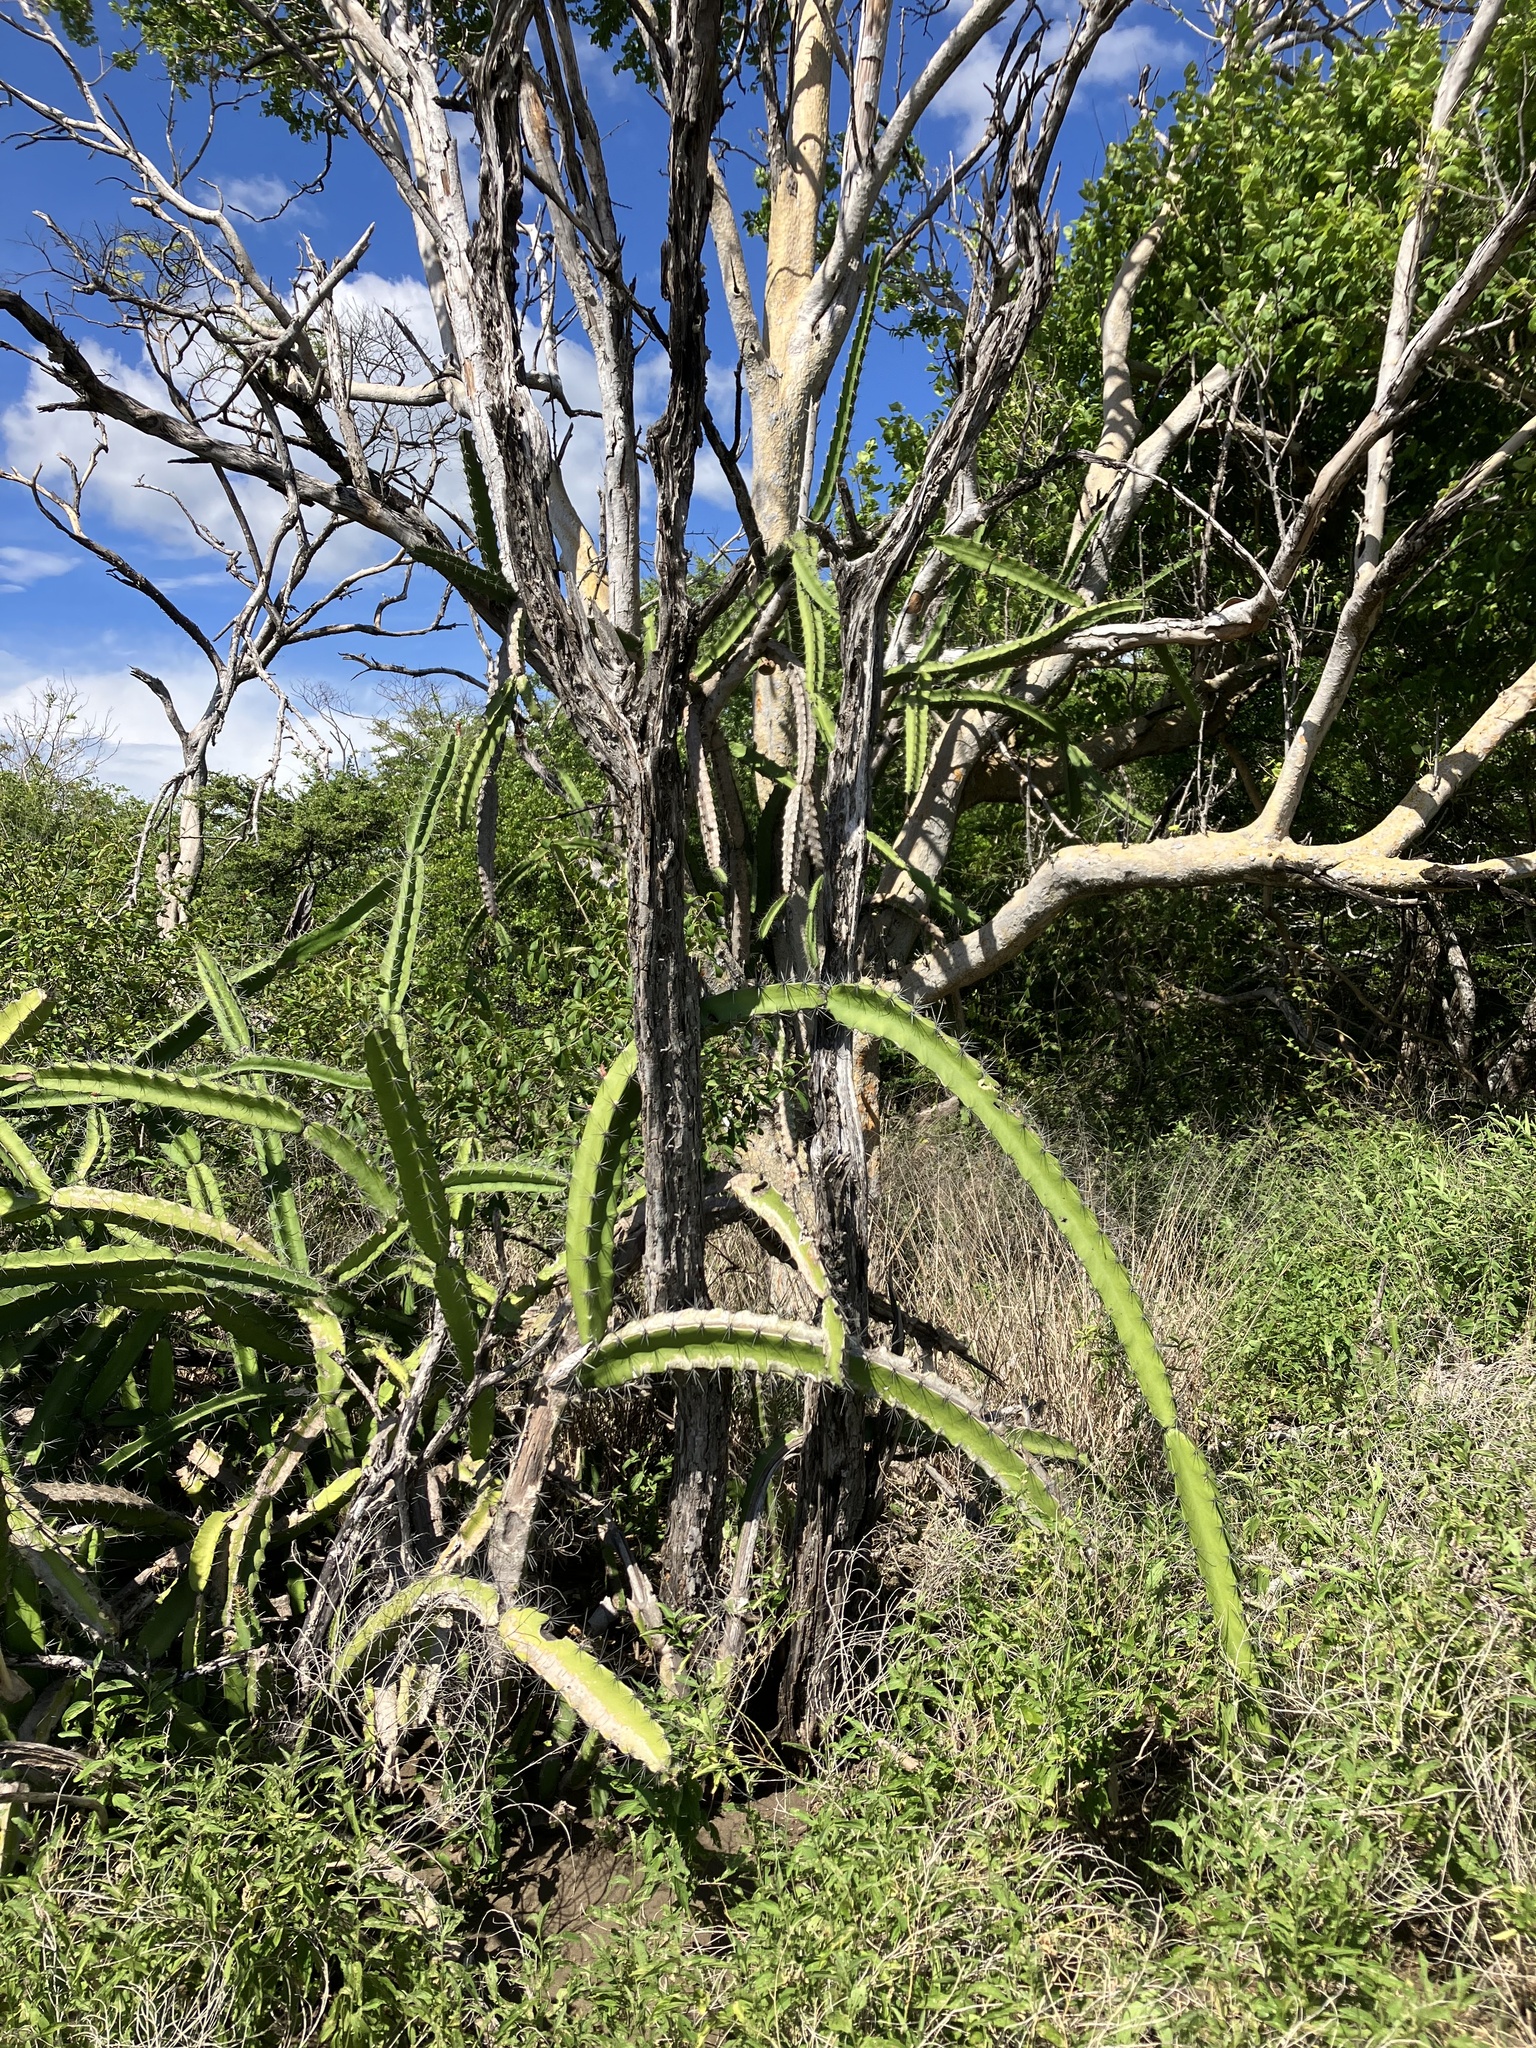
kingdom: Plantae
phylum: Tracheophyta
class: Magnoliopsida
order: Caryophyllales
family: Cactaceae
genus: Acanthocereus
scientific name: Acanthocereus tetragonus
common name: Triangle cactus
